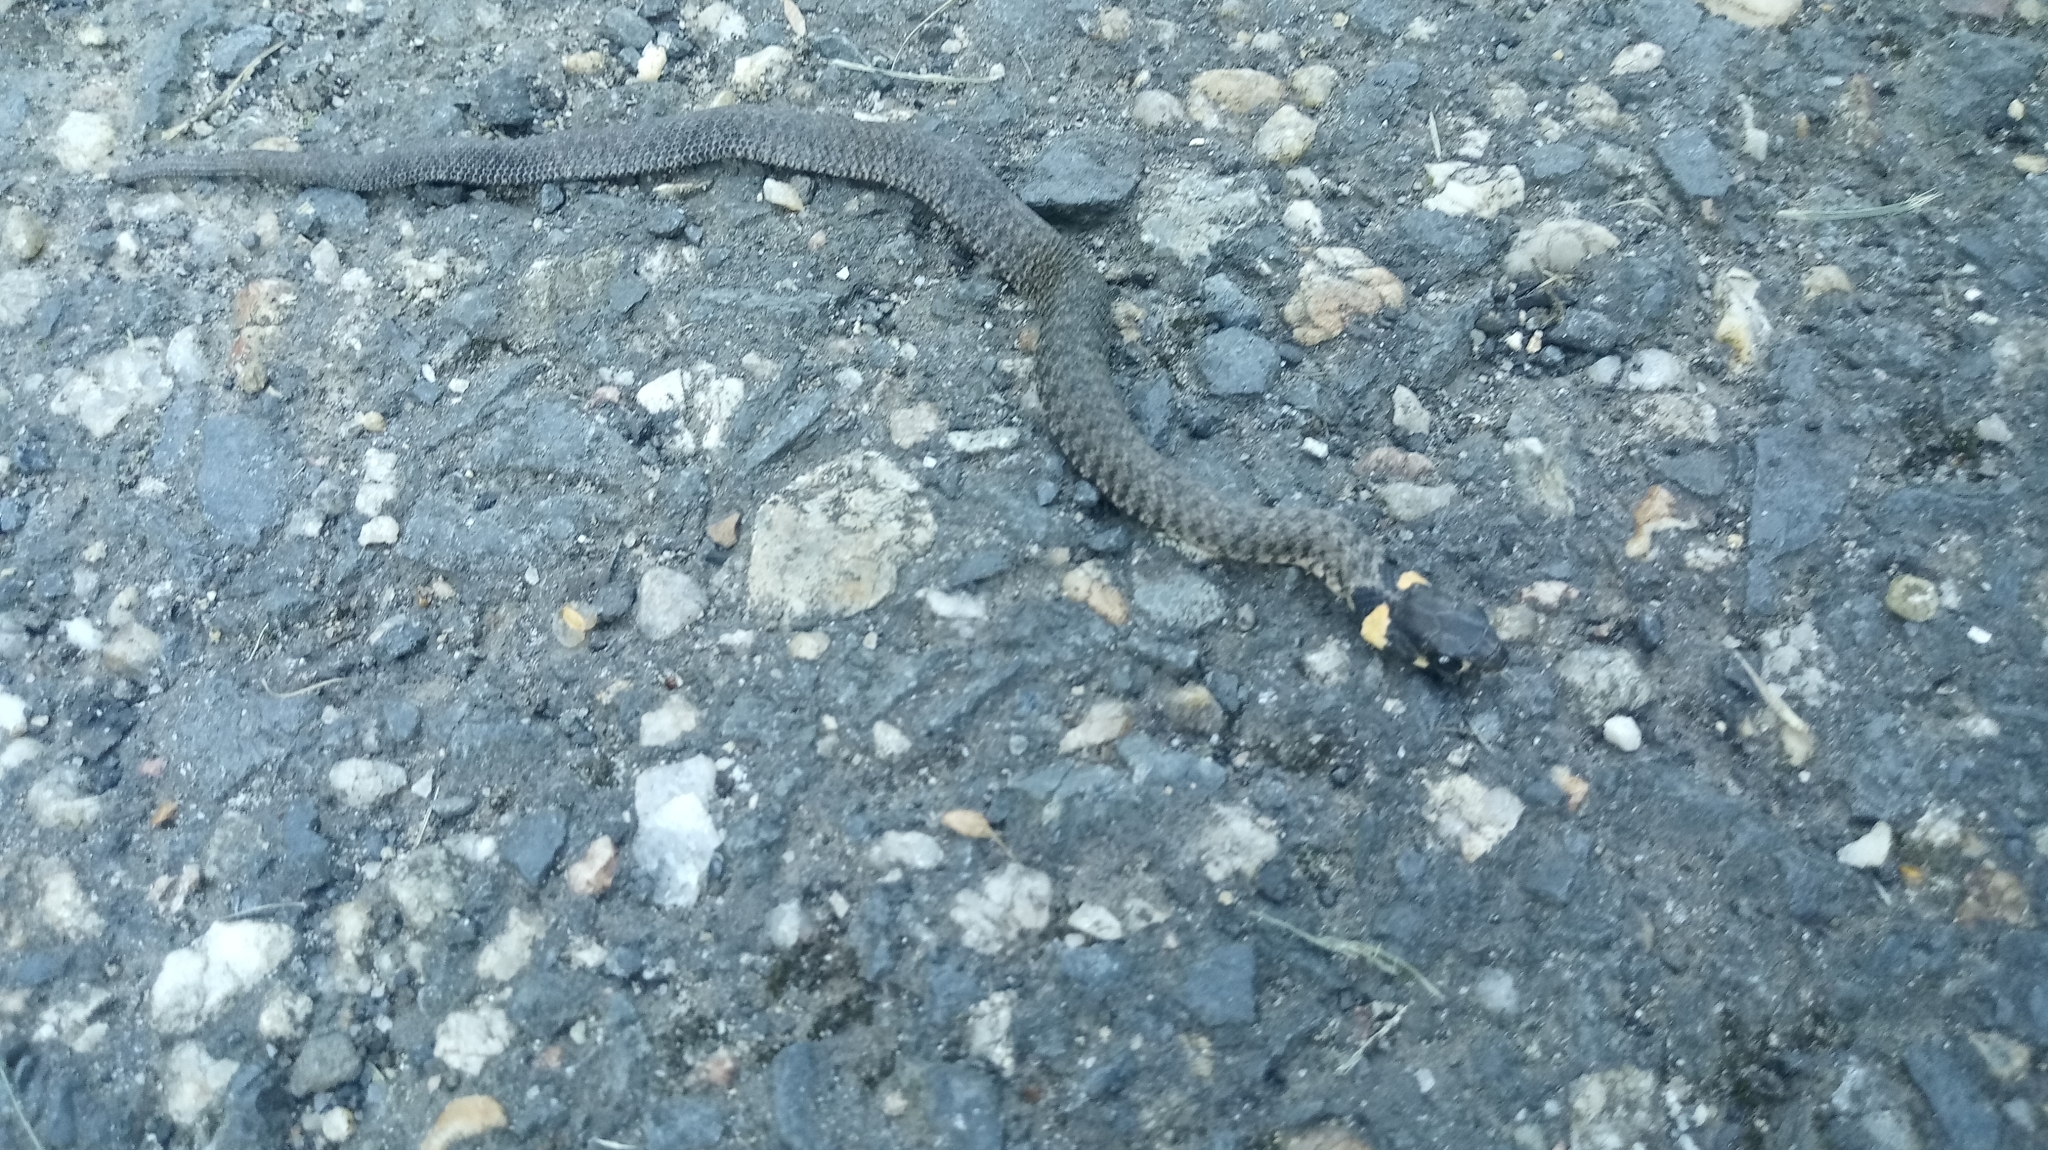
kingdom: Animalia
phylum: Chordata
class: Squamata
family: Colubridae
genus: Natrix
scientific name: Natrix natrix
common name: Grass snake
